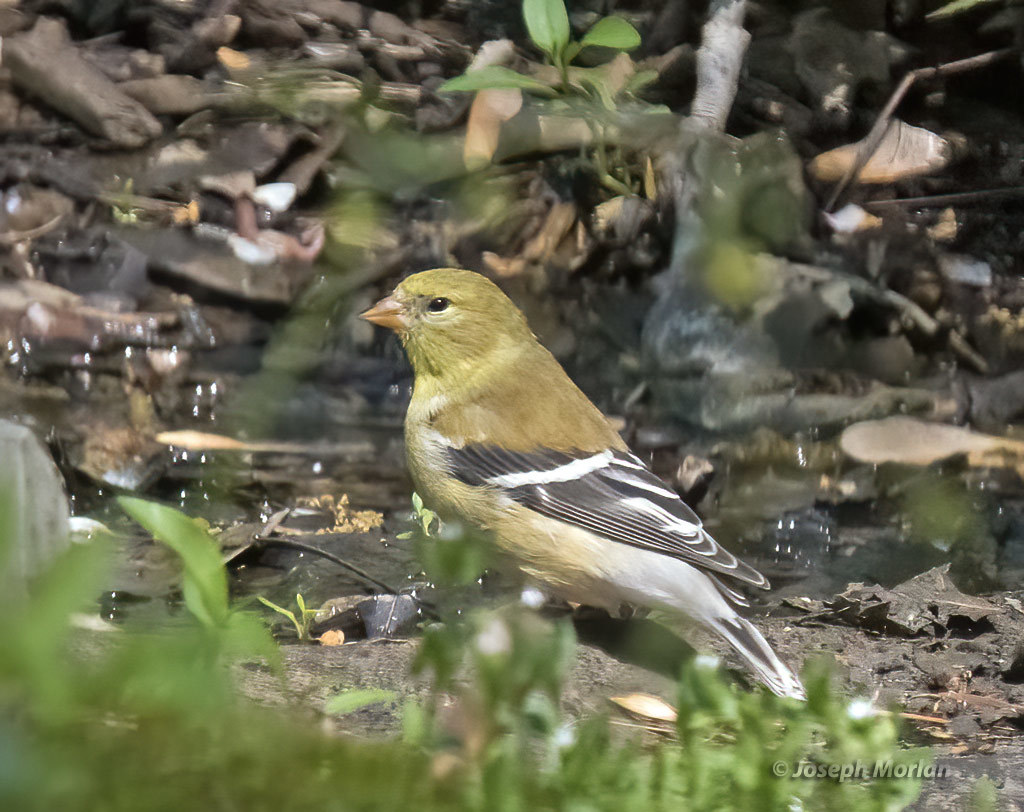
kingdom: Animalia
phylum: Chordata
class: Aves
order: Passeriformes
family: Fringillidae
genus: Spinus
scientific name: Spinus tristis
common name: American goldfinch
